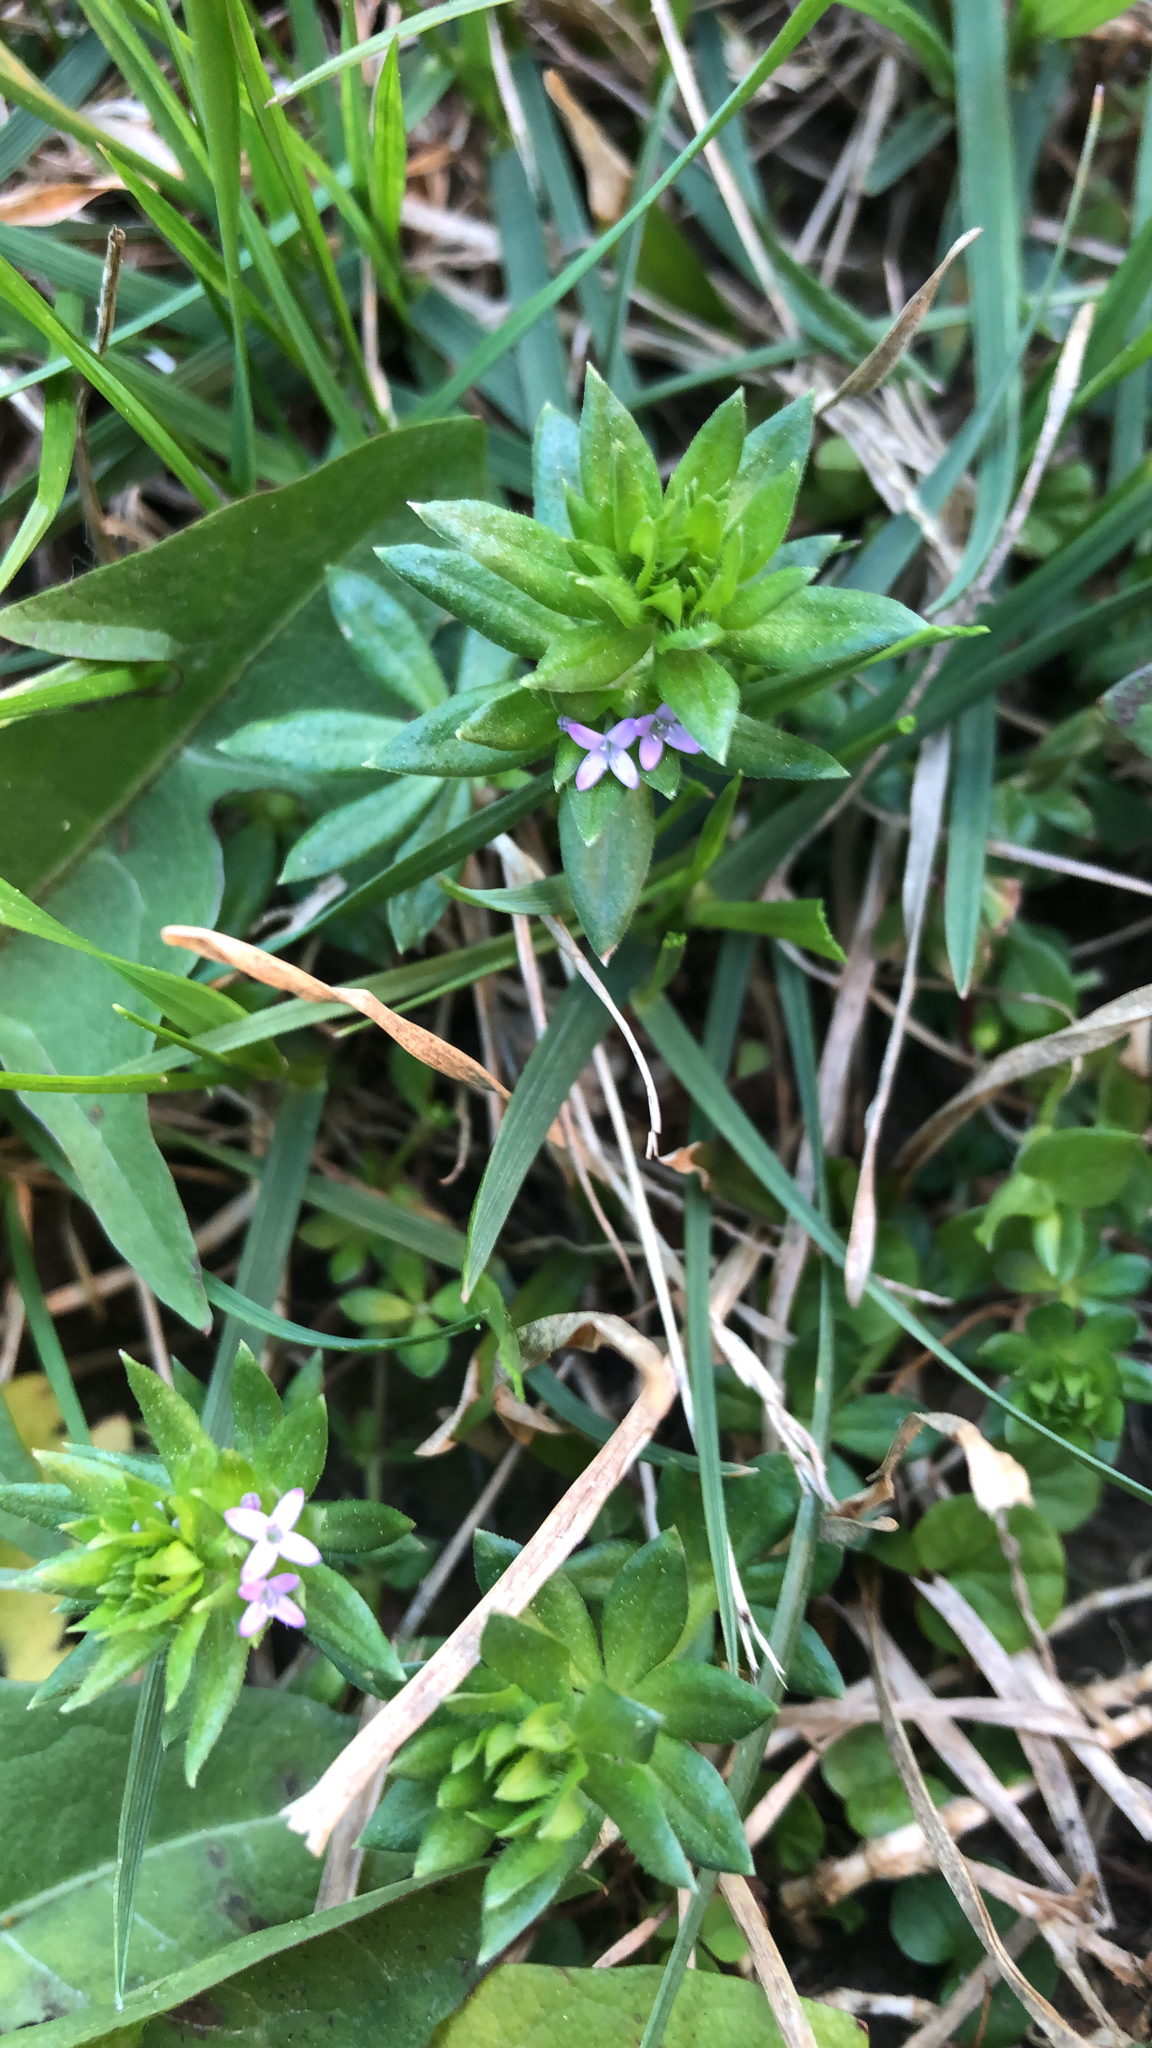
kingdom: Plantae
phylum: Tracheophyta
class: Magnoliopsida
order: Gentianales
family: Rubiaceae
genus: Sherardia
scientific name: Sherardia arvensis
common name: Field madder
